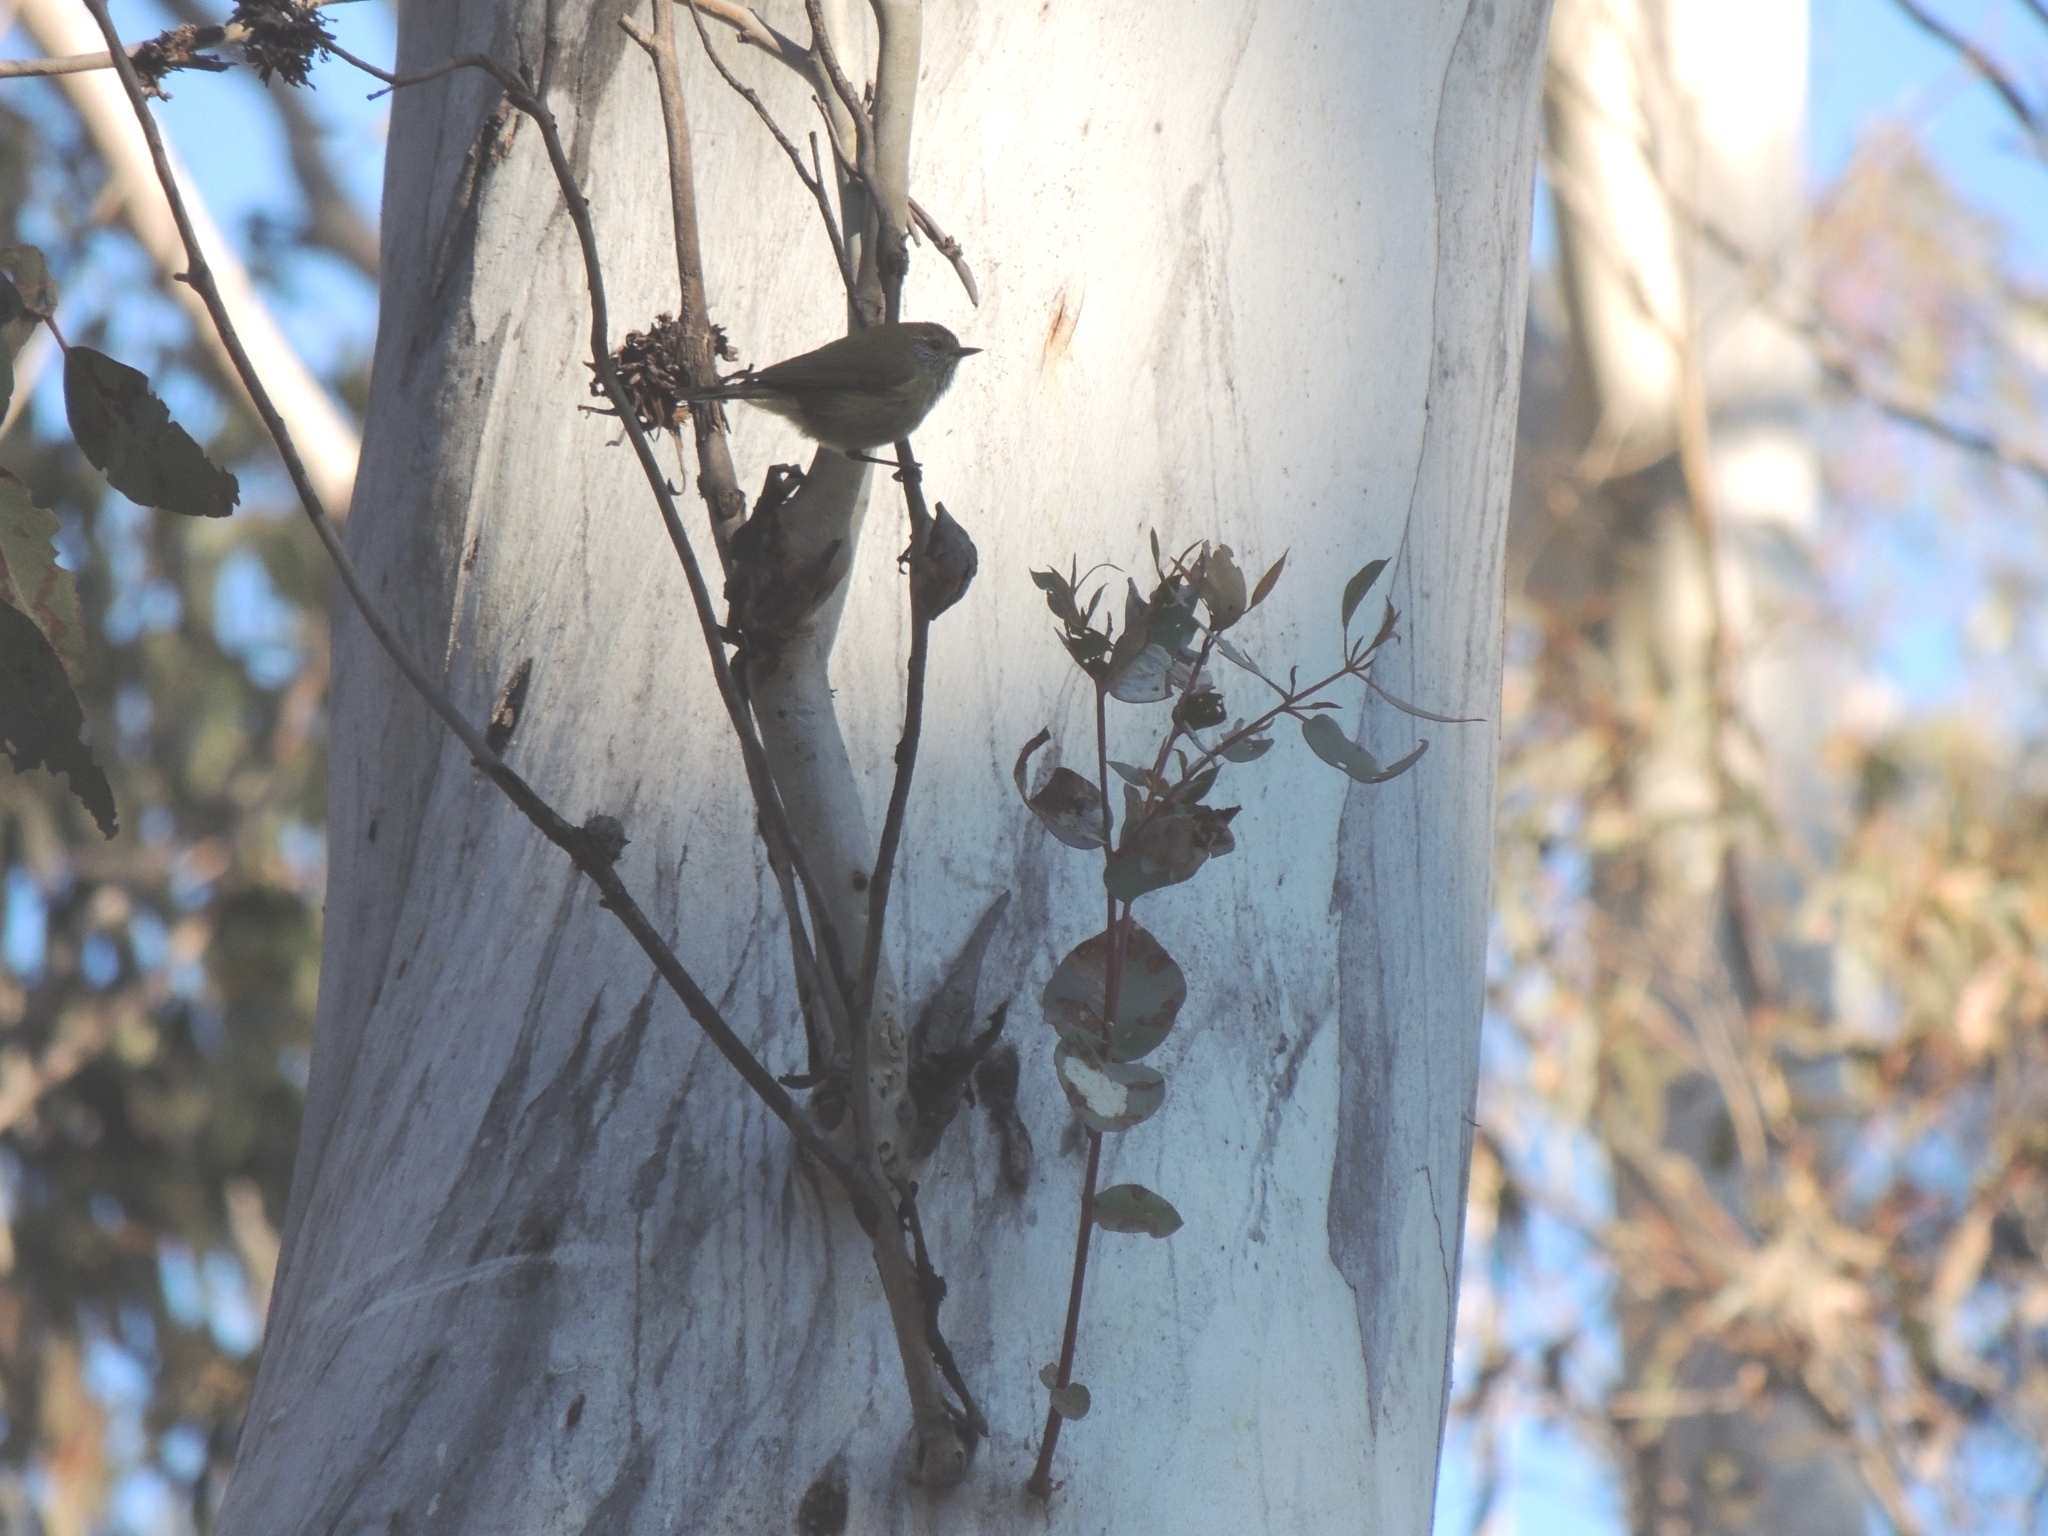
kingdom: Animalia
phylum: Chordata
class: Aves
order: Passeriformes
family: Acanthizidae
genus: Acanthiza
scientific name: Acanthiza lineata
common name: Striated thornbill
